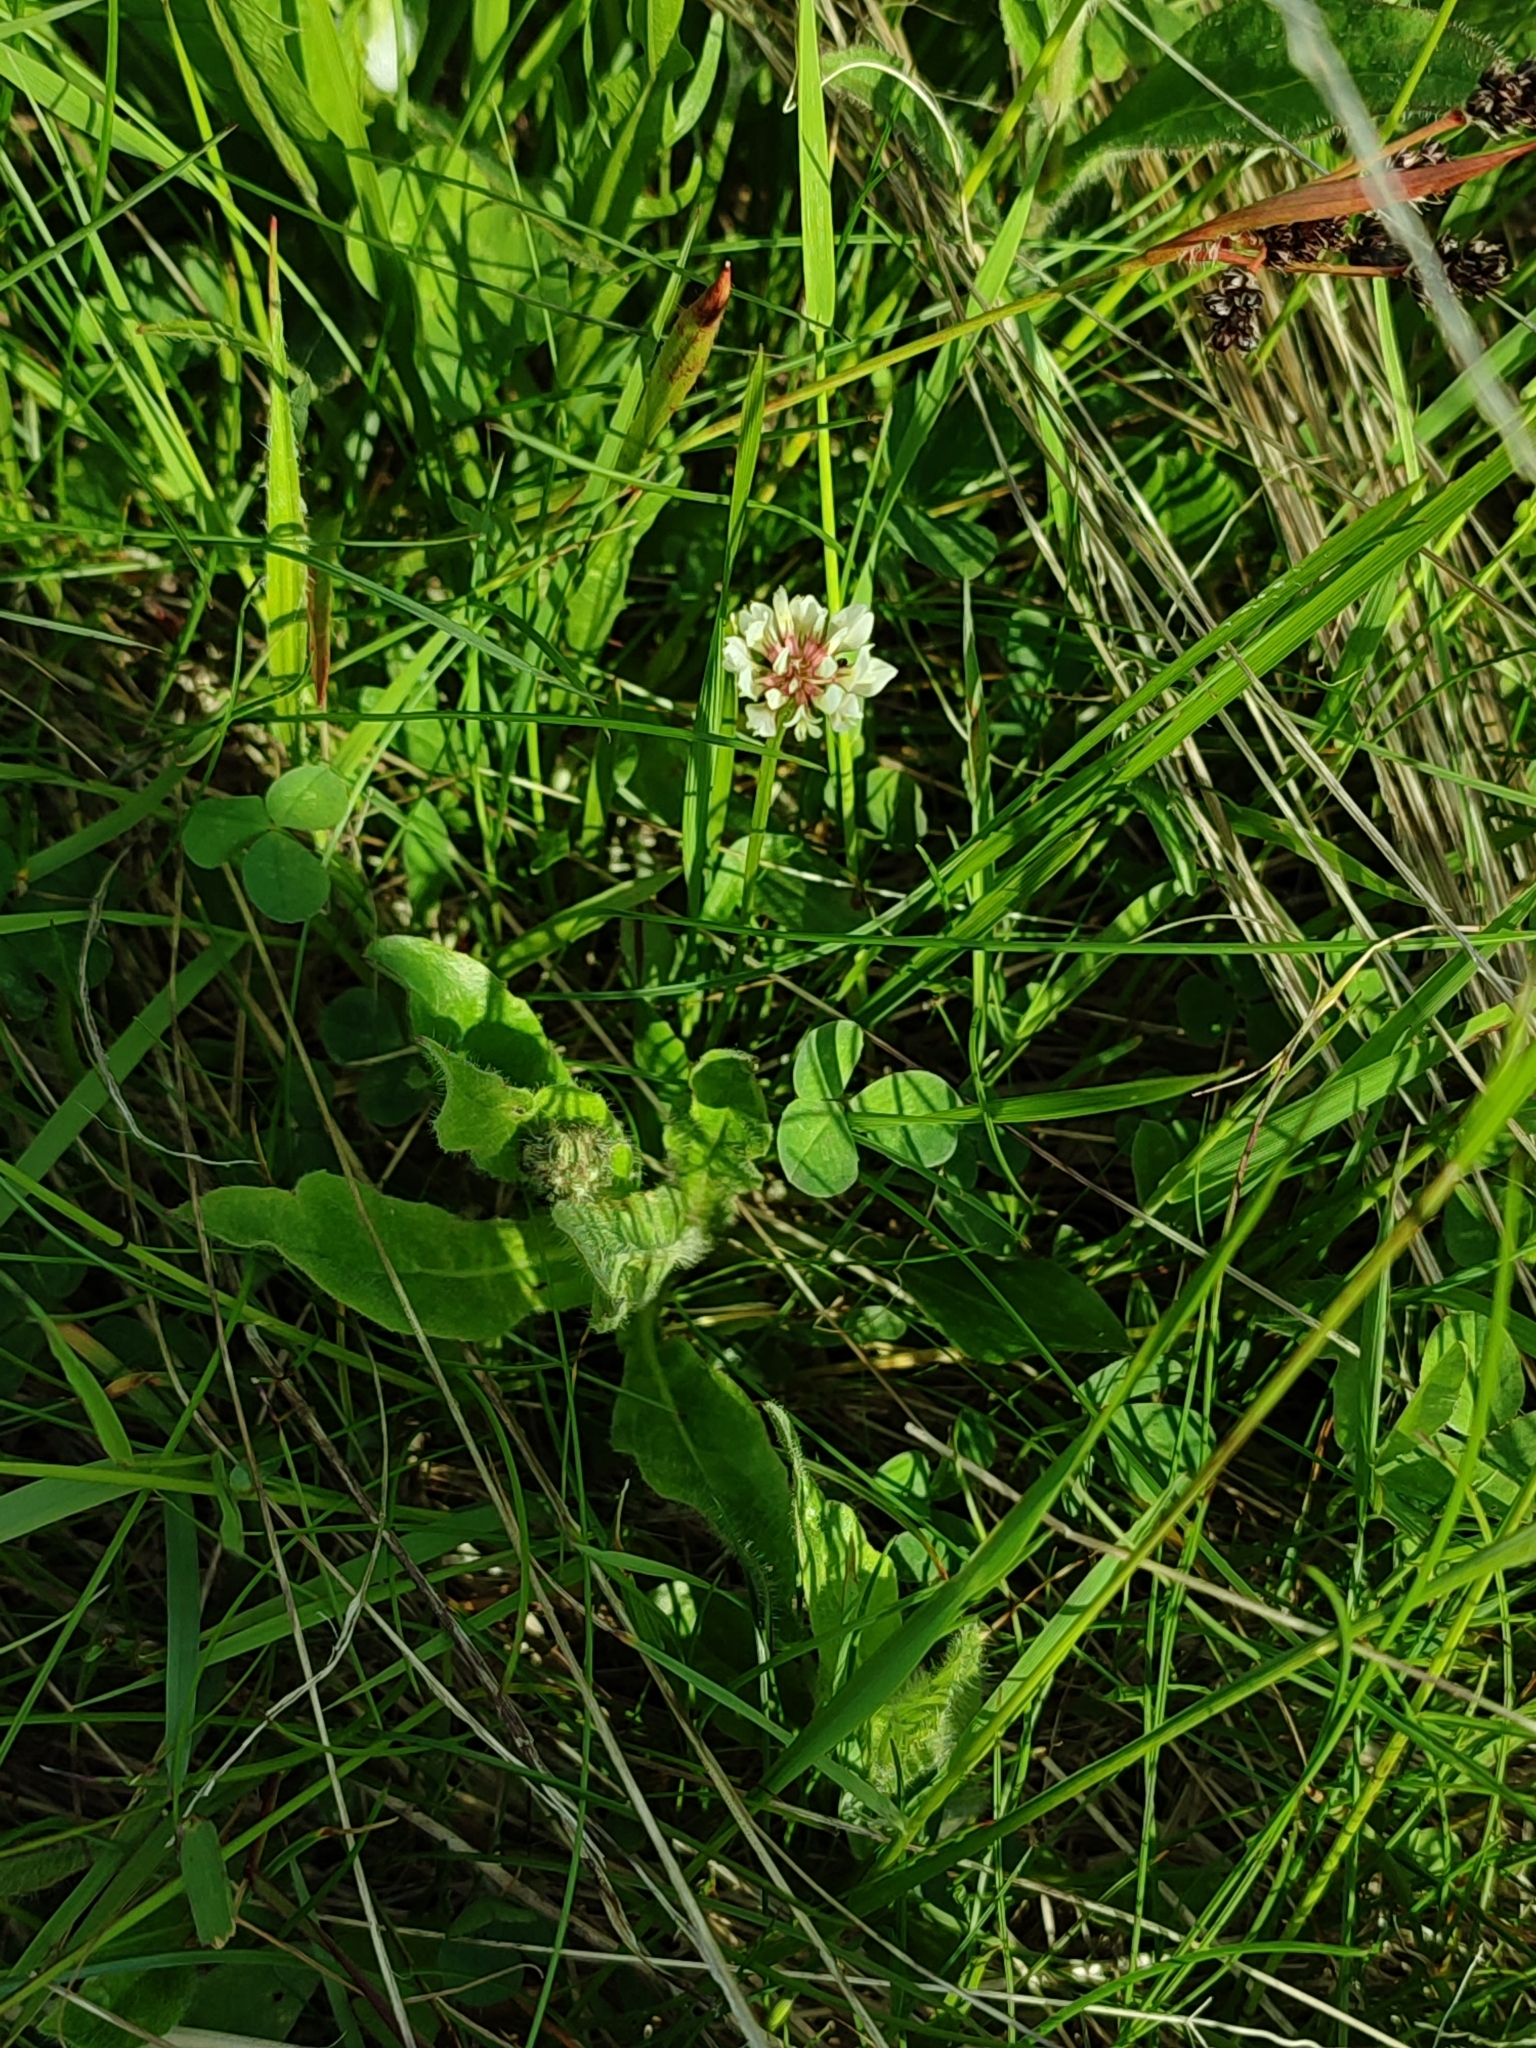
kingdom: Plantae
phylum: Tracheophyta
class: Magnoliopsida
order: Fabales
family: Fabaceae
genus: Trifolium
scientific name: Trifolium repens
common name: White clover
